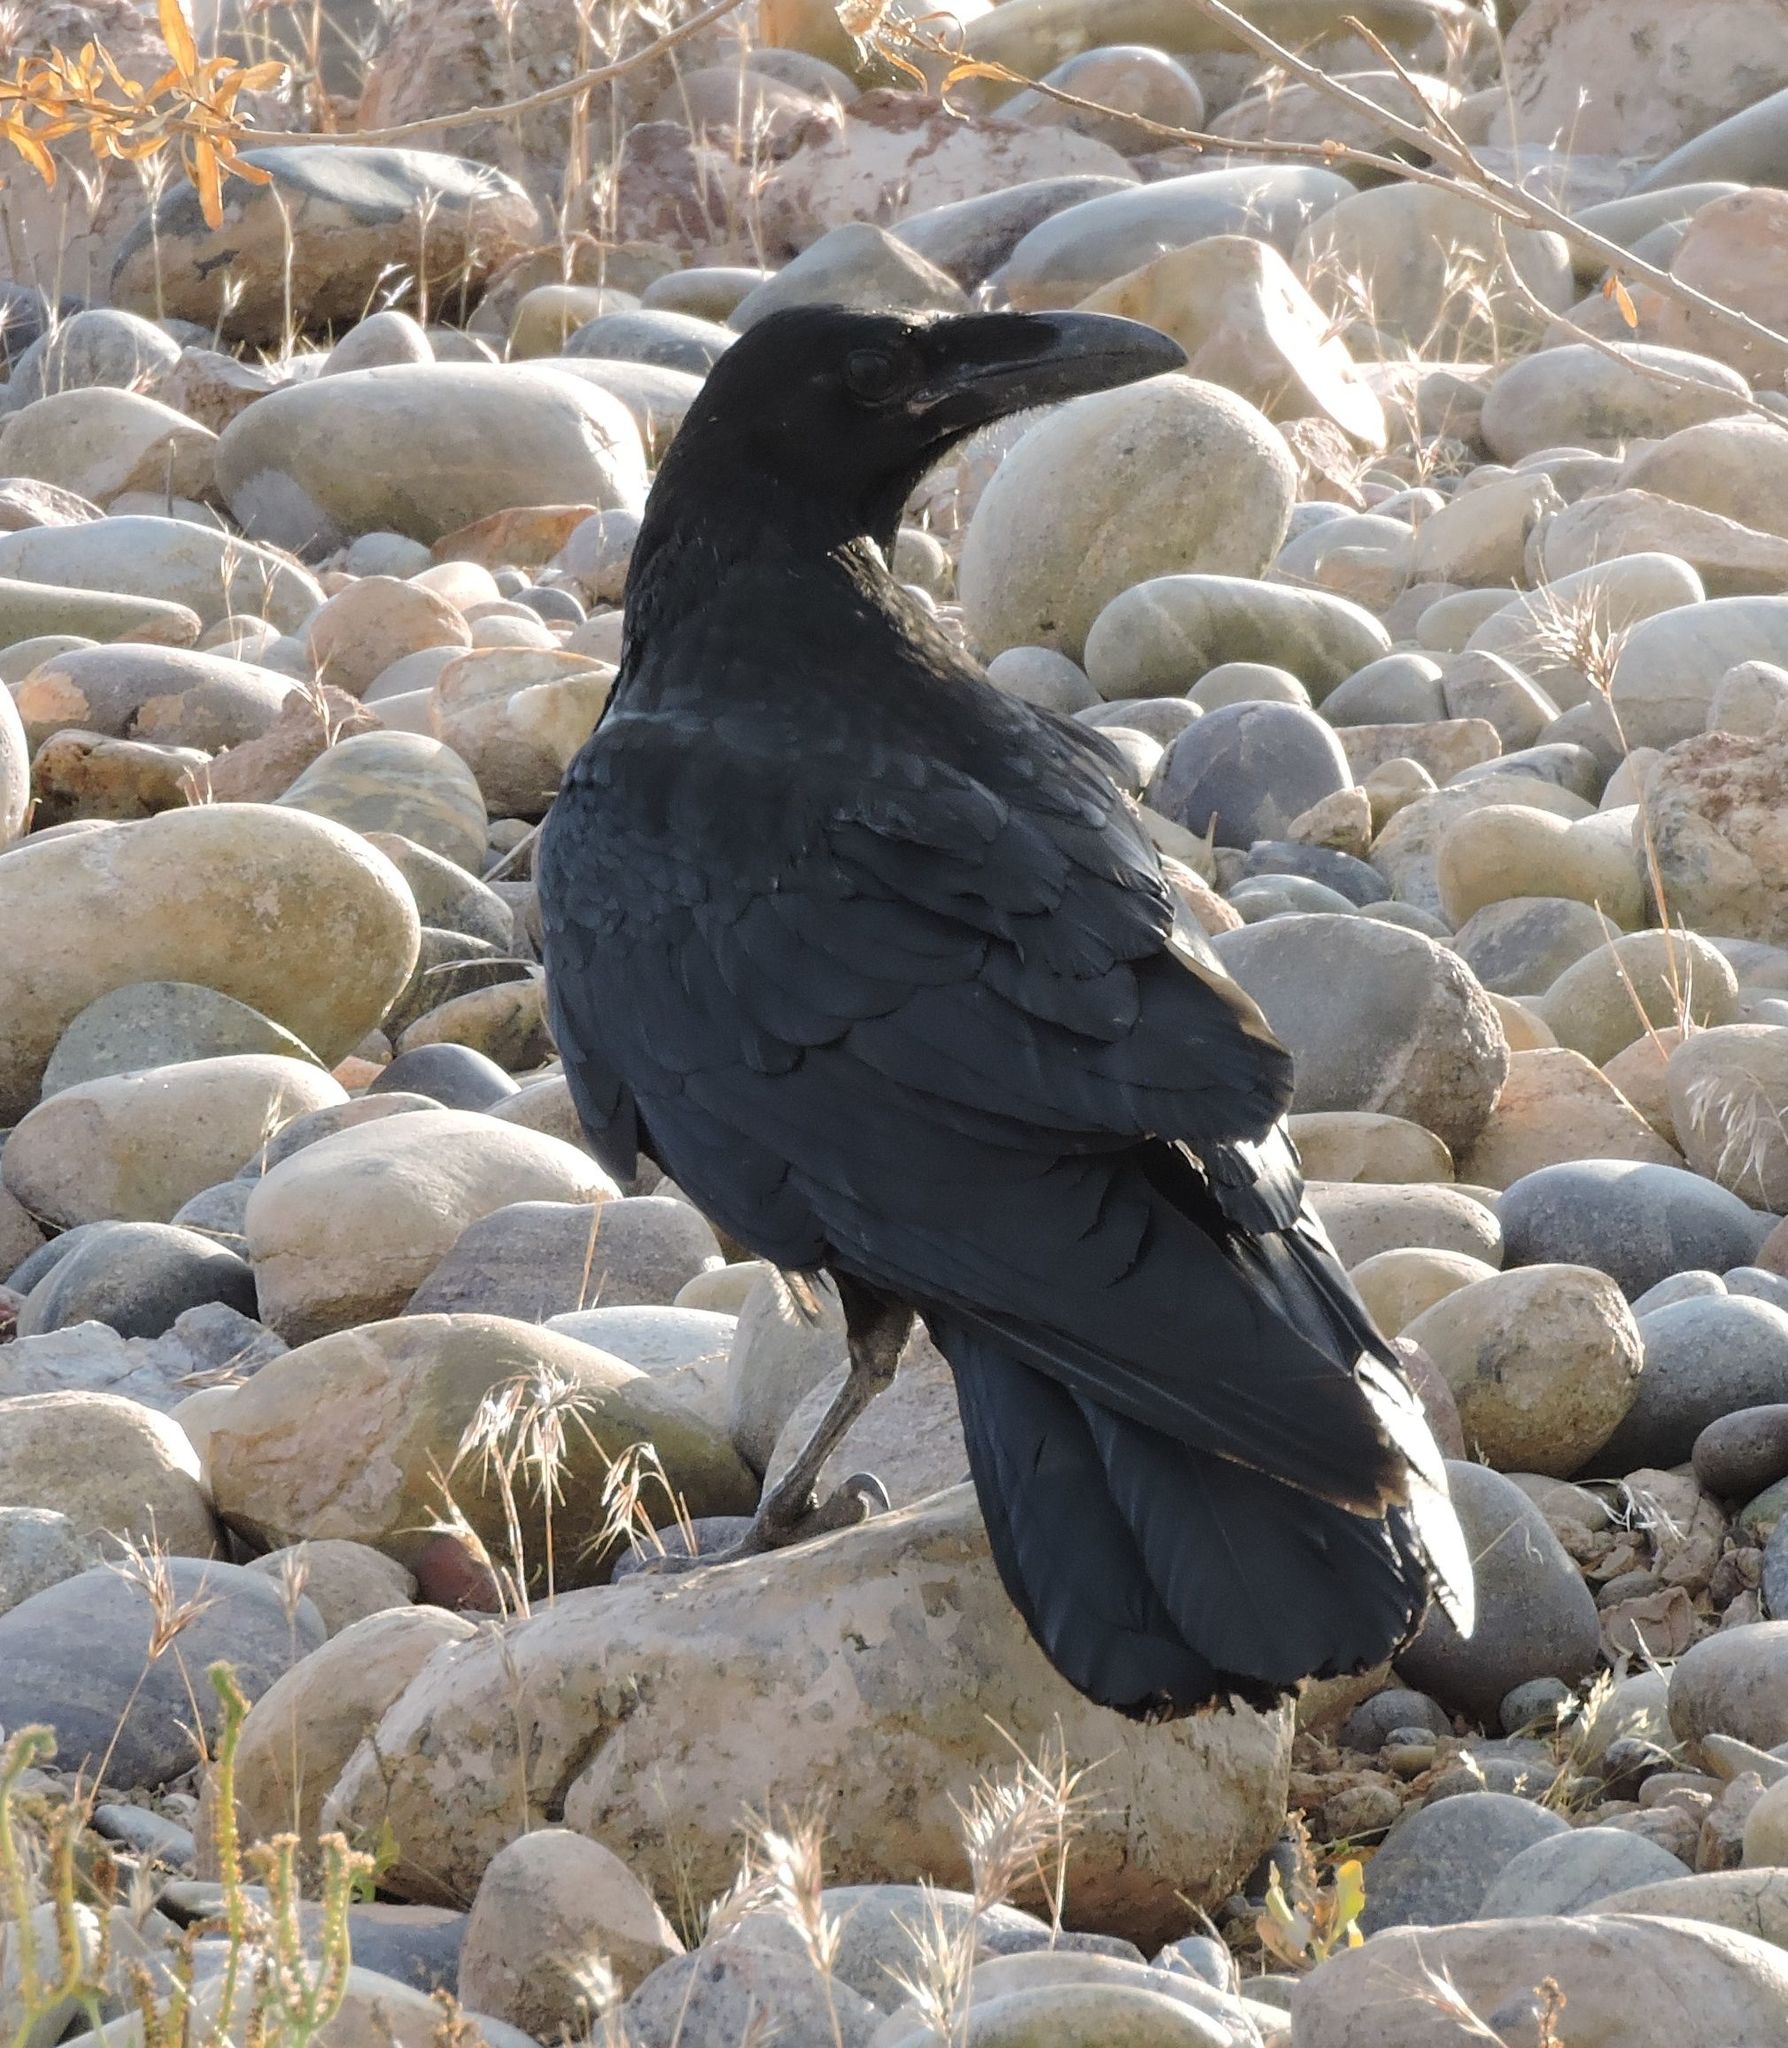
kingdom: Animalia
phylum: Chordata
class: Aves
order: Passeriformes
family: Corvidae
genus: Corvus
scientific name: Corvus corax
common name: Common raven
